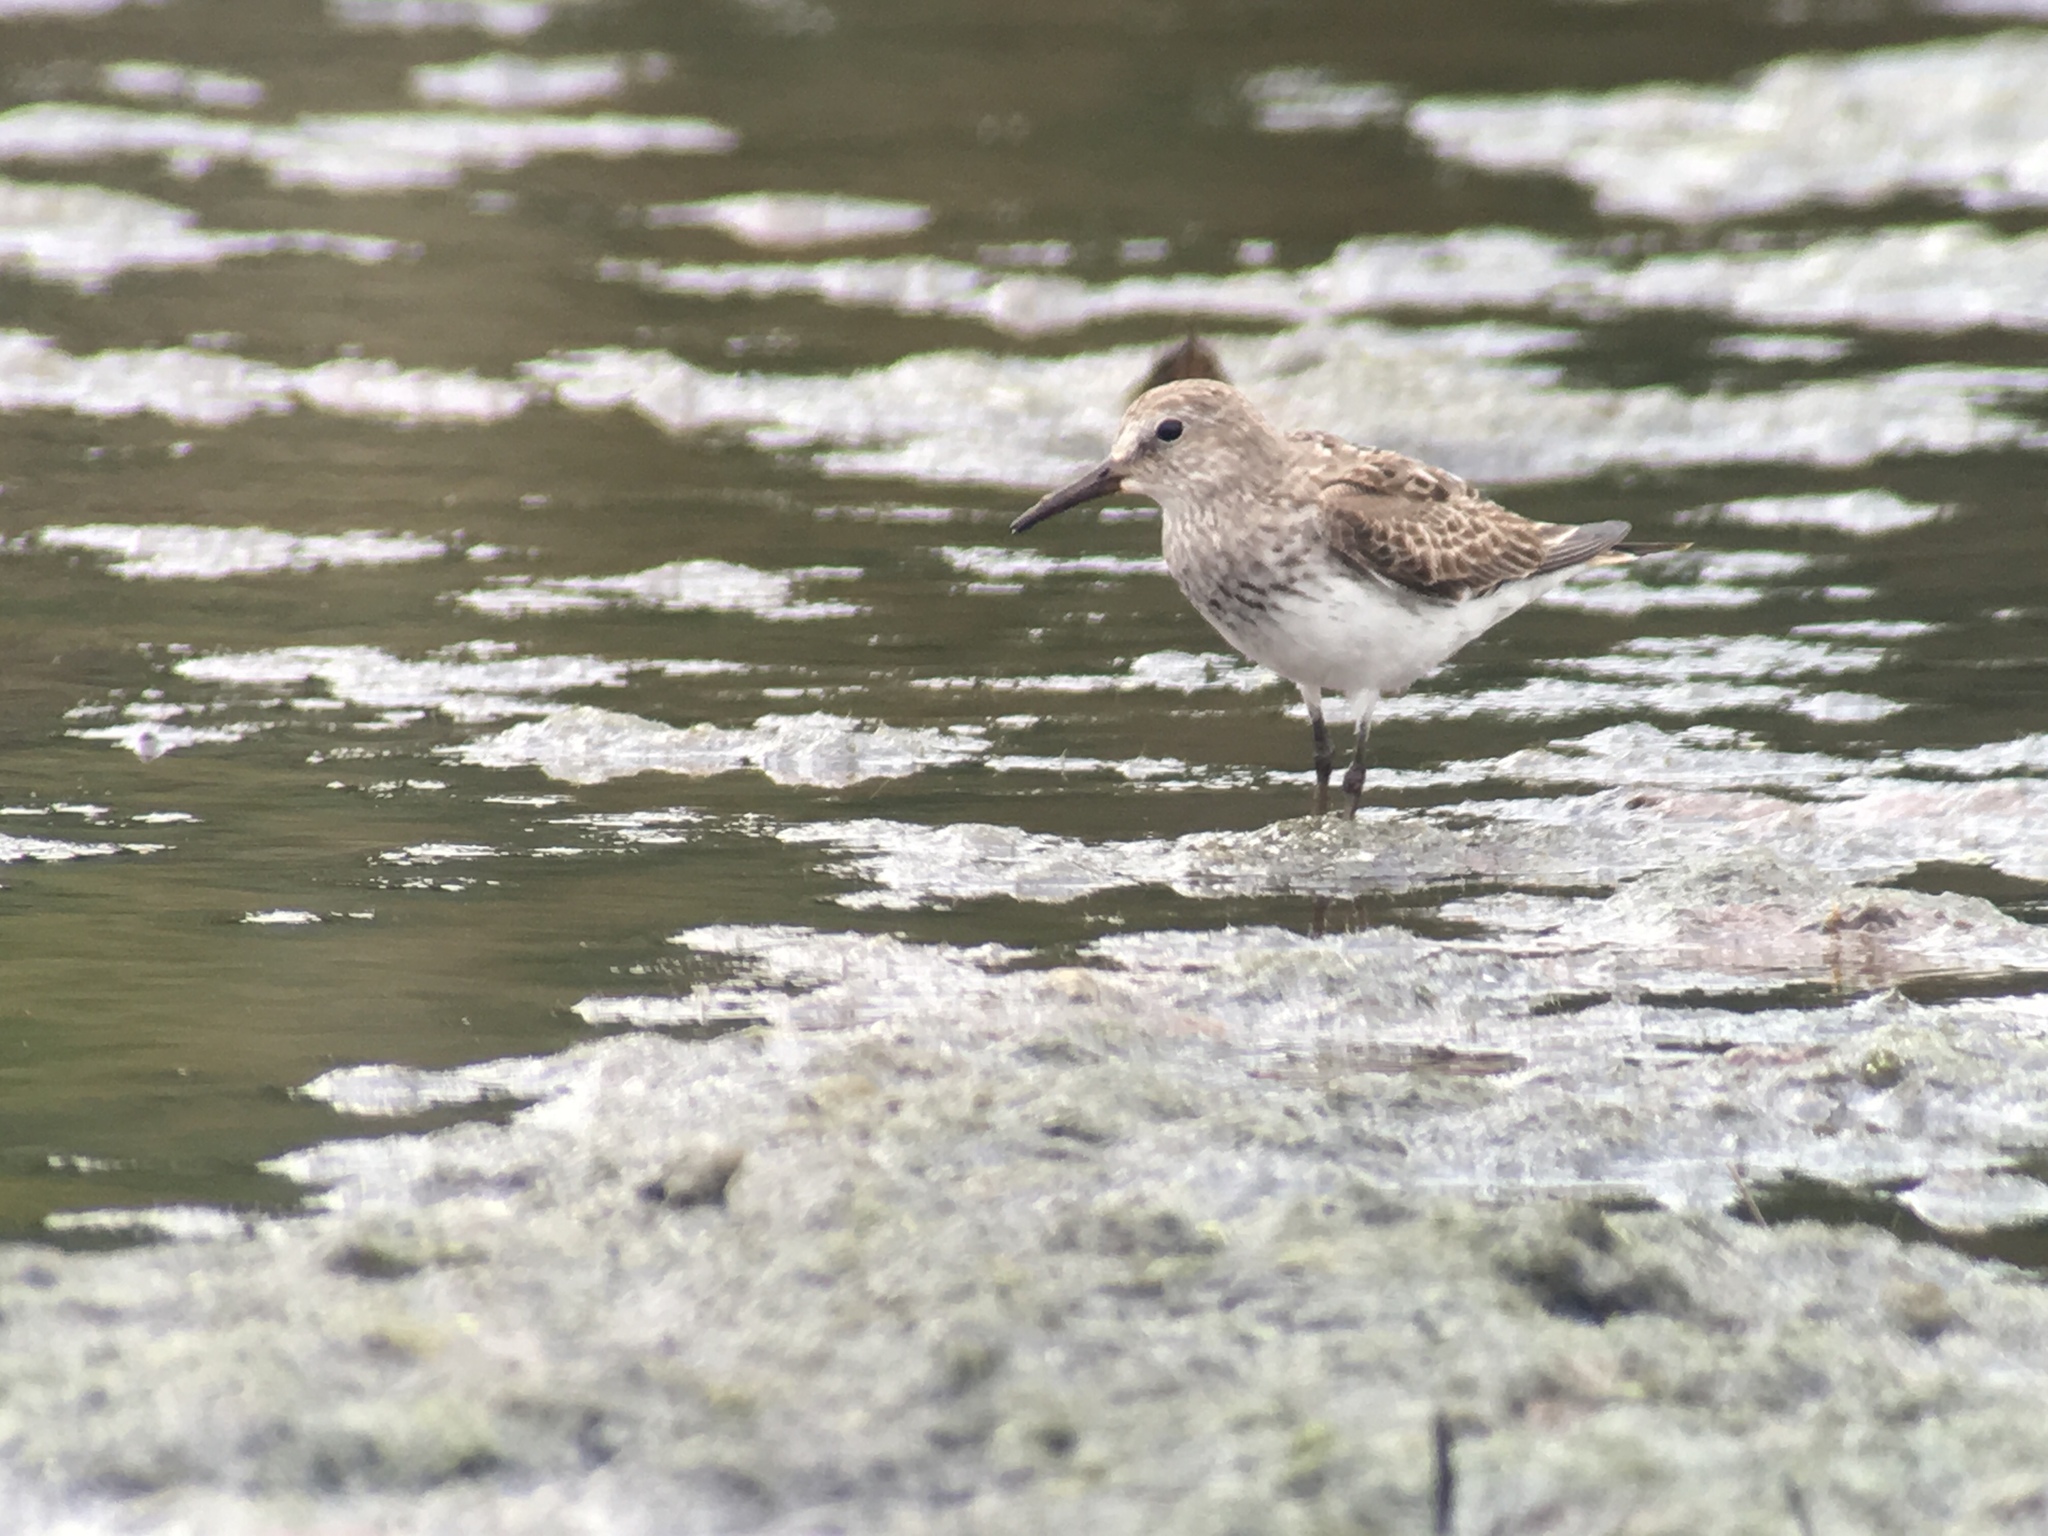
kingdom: Animalia
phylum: Chordata
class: Aves
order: Charadriiformes
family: Scolopacidae
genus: Calidris
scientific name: Calidris fuscicollis
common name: White-rumped sandpiper
